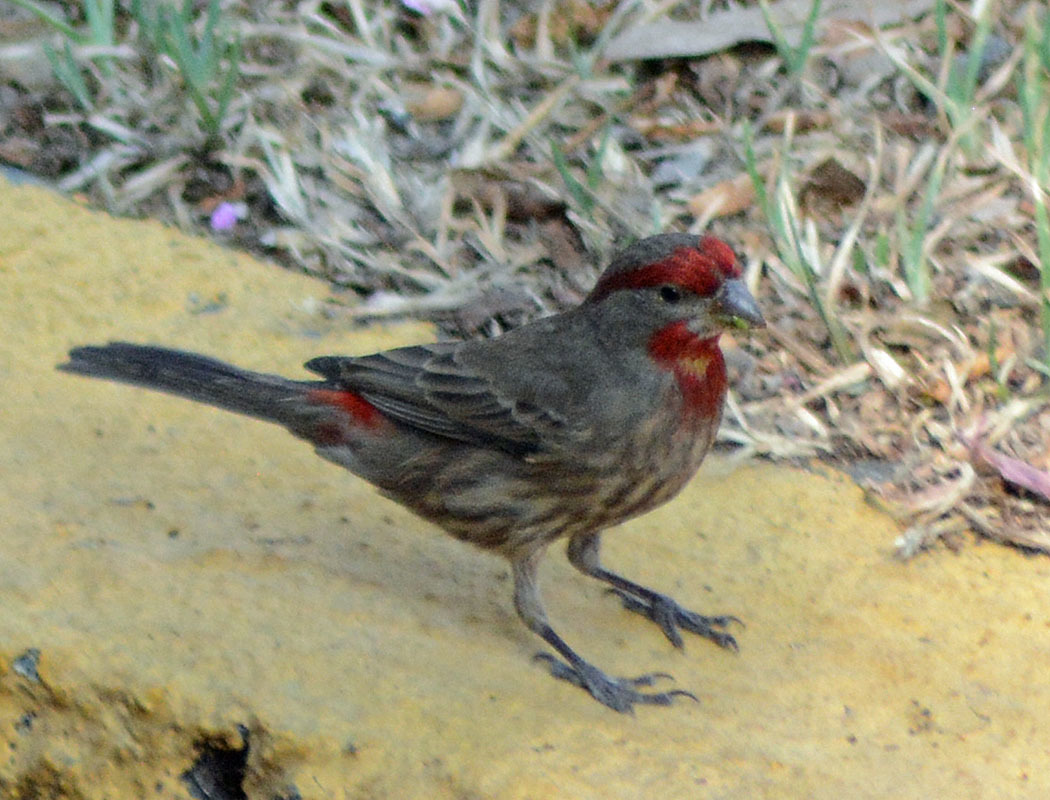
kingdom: Animalia
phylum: Chordata
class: Aves
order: Passeriformes
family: Fringillidae
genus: Haemorhous
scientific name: Haemorhous mexicanus
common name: House finch
